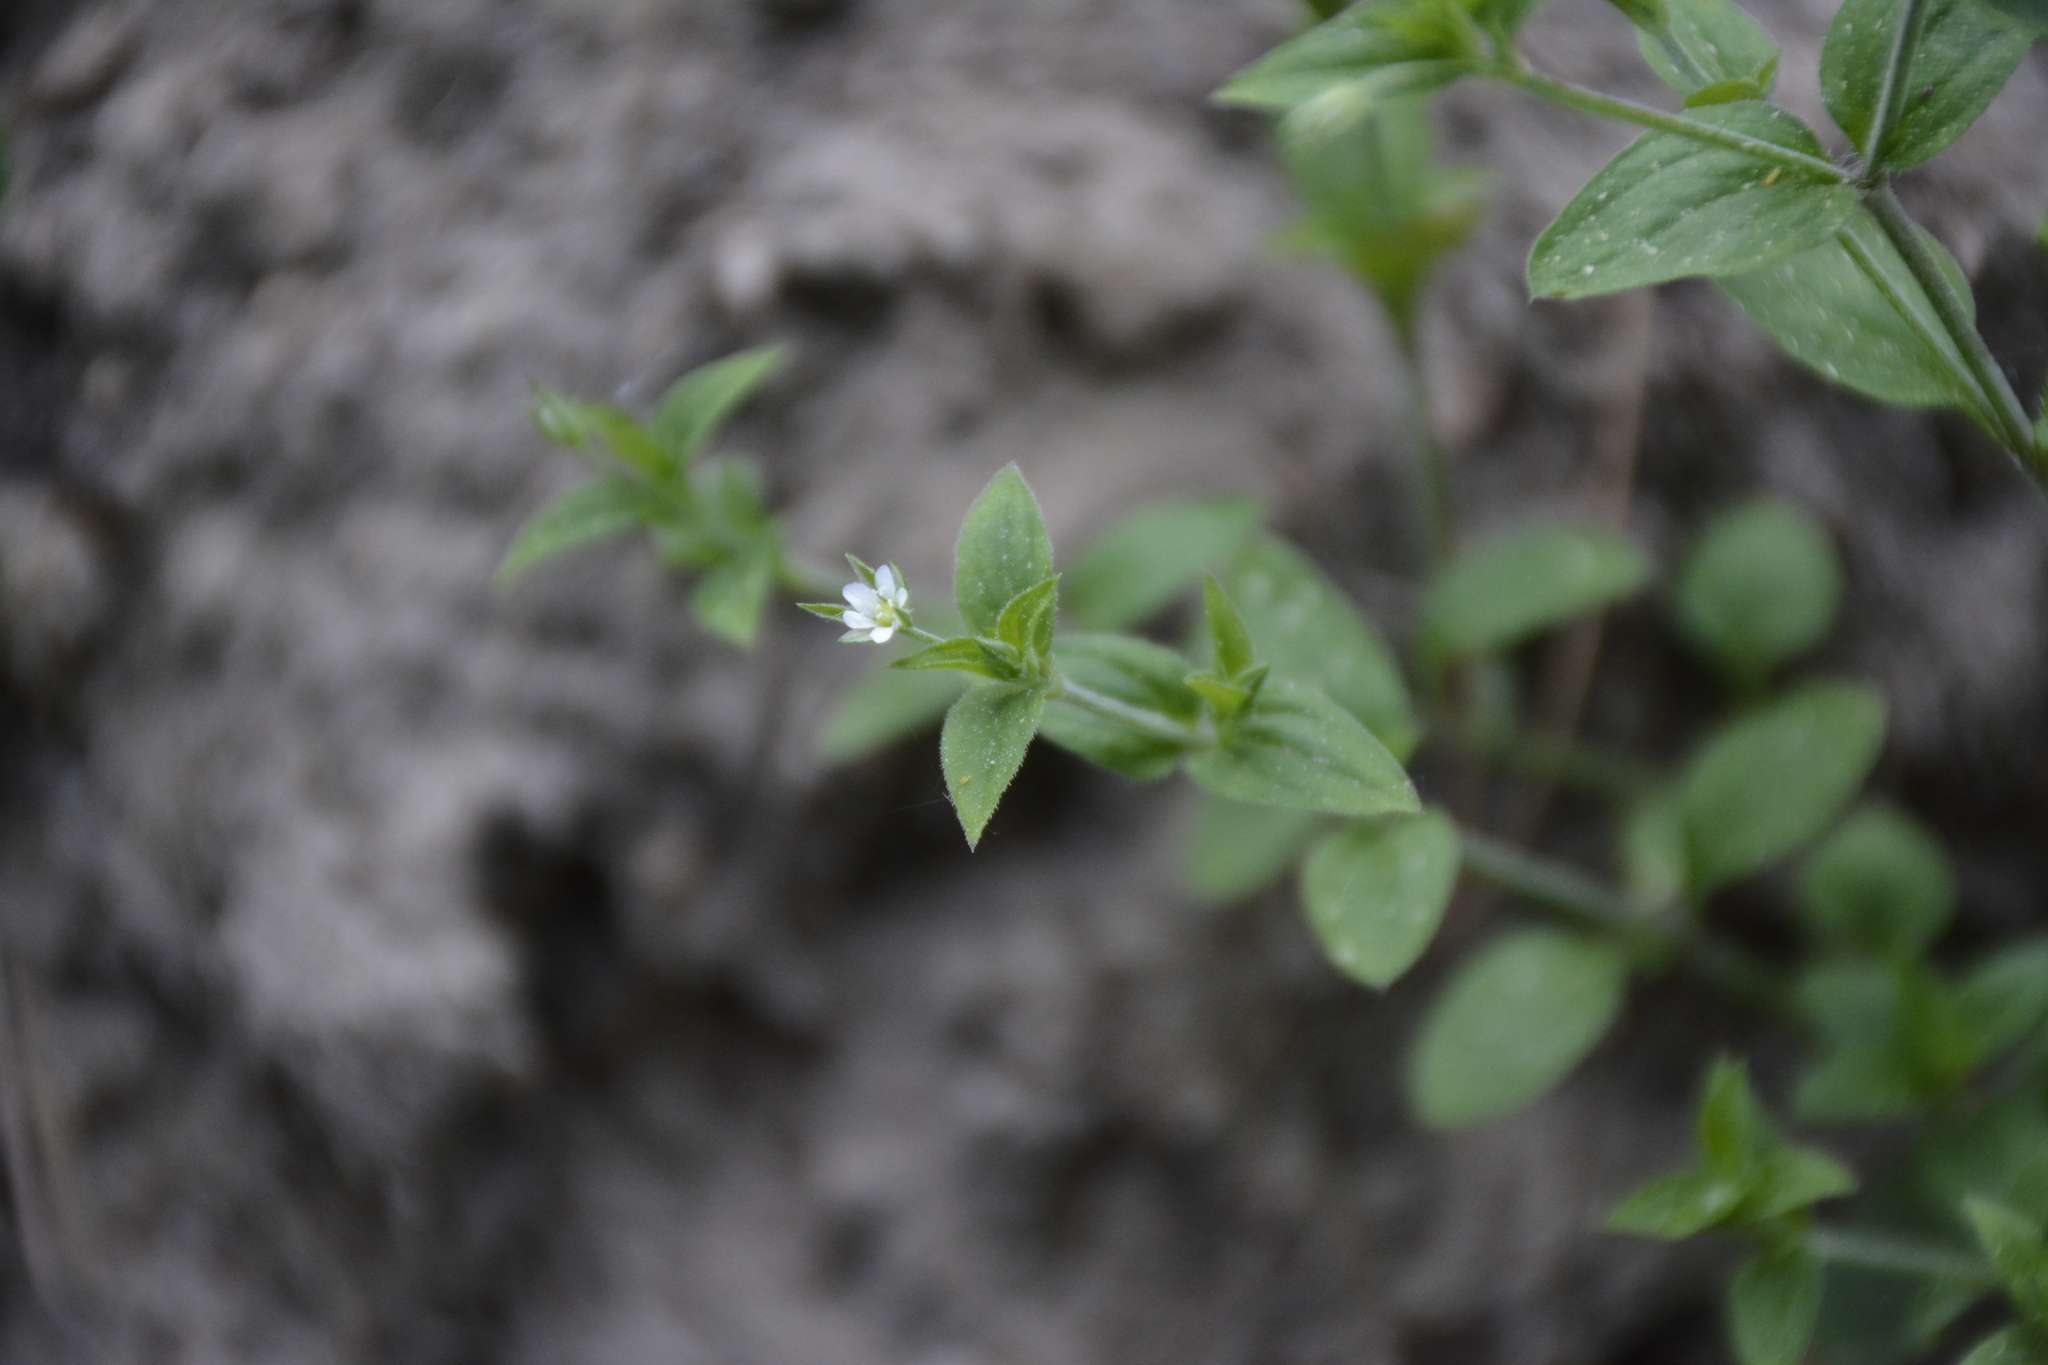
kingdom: Plantae
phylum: Tracheophyta
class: Magnoliopsida
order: Caryophyllales
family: Caryophyllaceae
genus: Moehringia
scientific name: Moehringia trinervia
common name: Three-nerved sandwort
